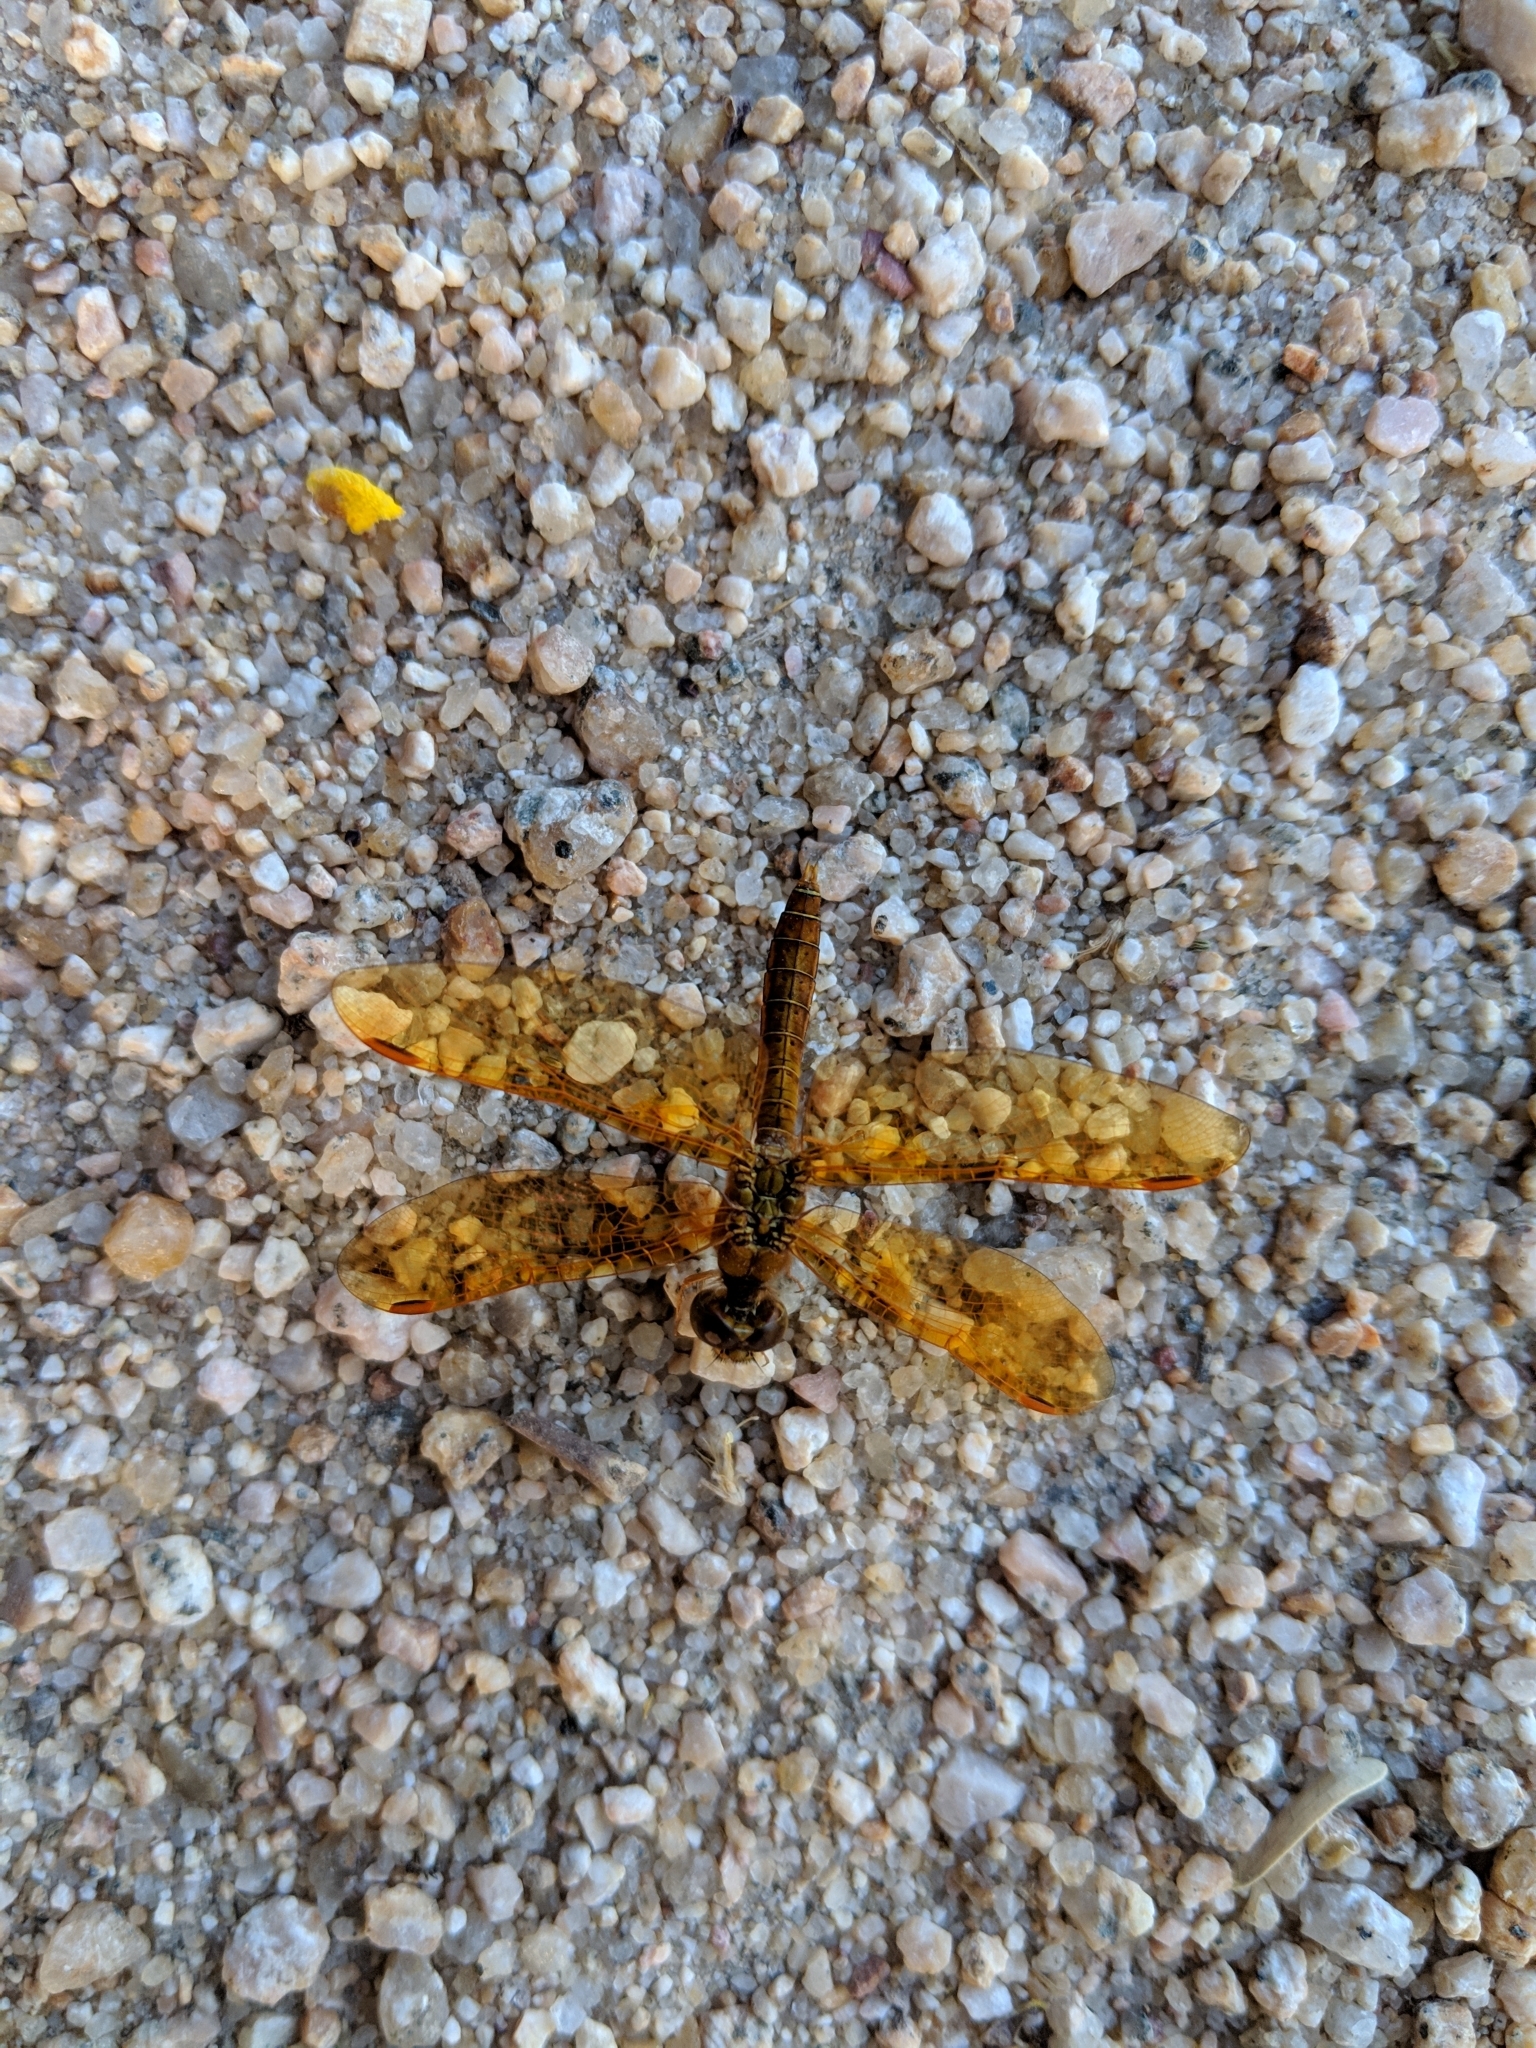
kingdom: Animalia
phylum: Arthropoda
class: Insecta
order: Odonata
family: Libellulidae
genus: Perithemis
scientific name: Perithemis intensa
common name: Mexican amberwing
